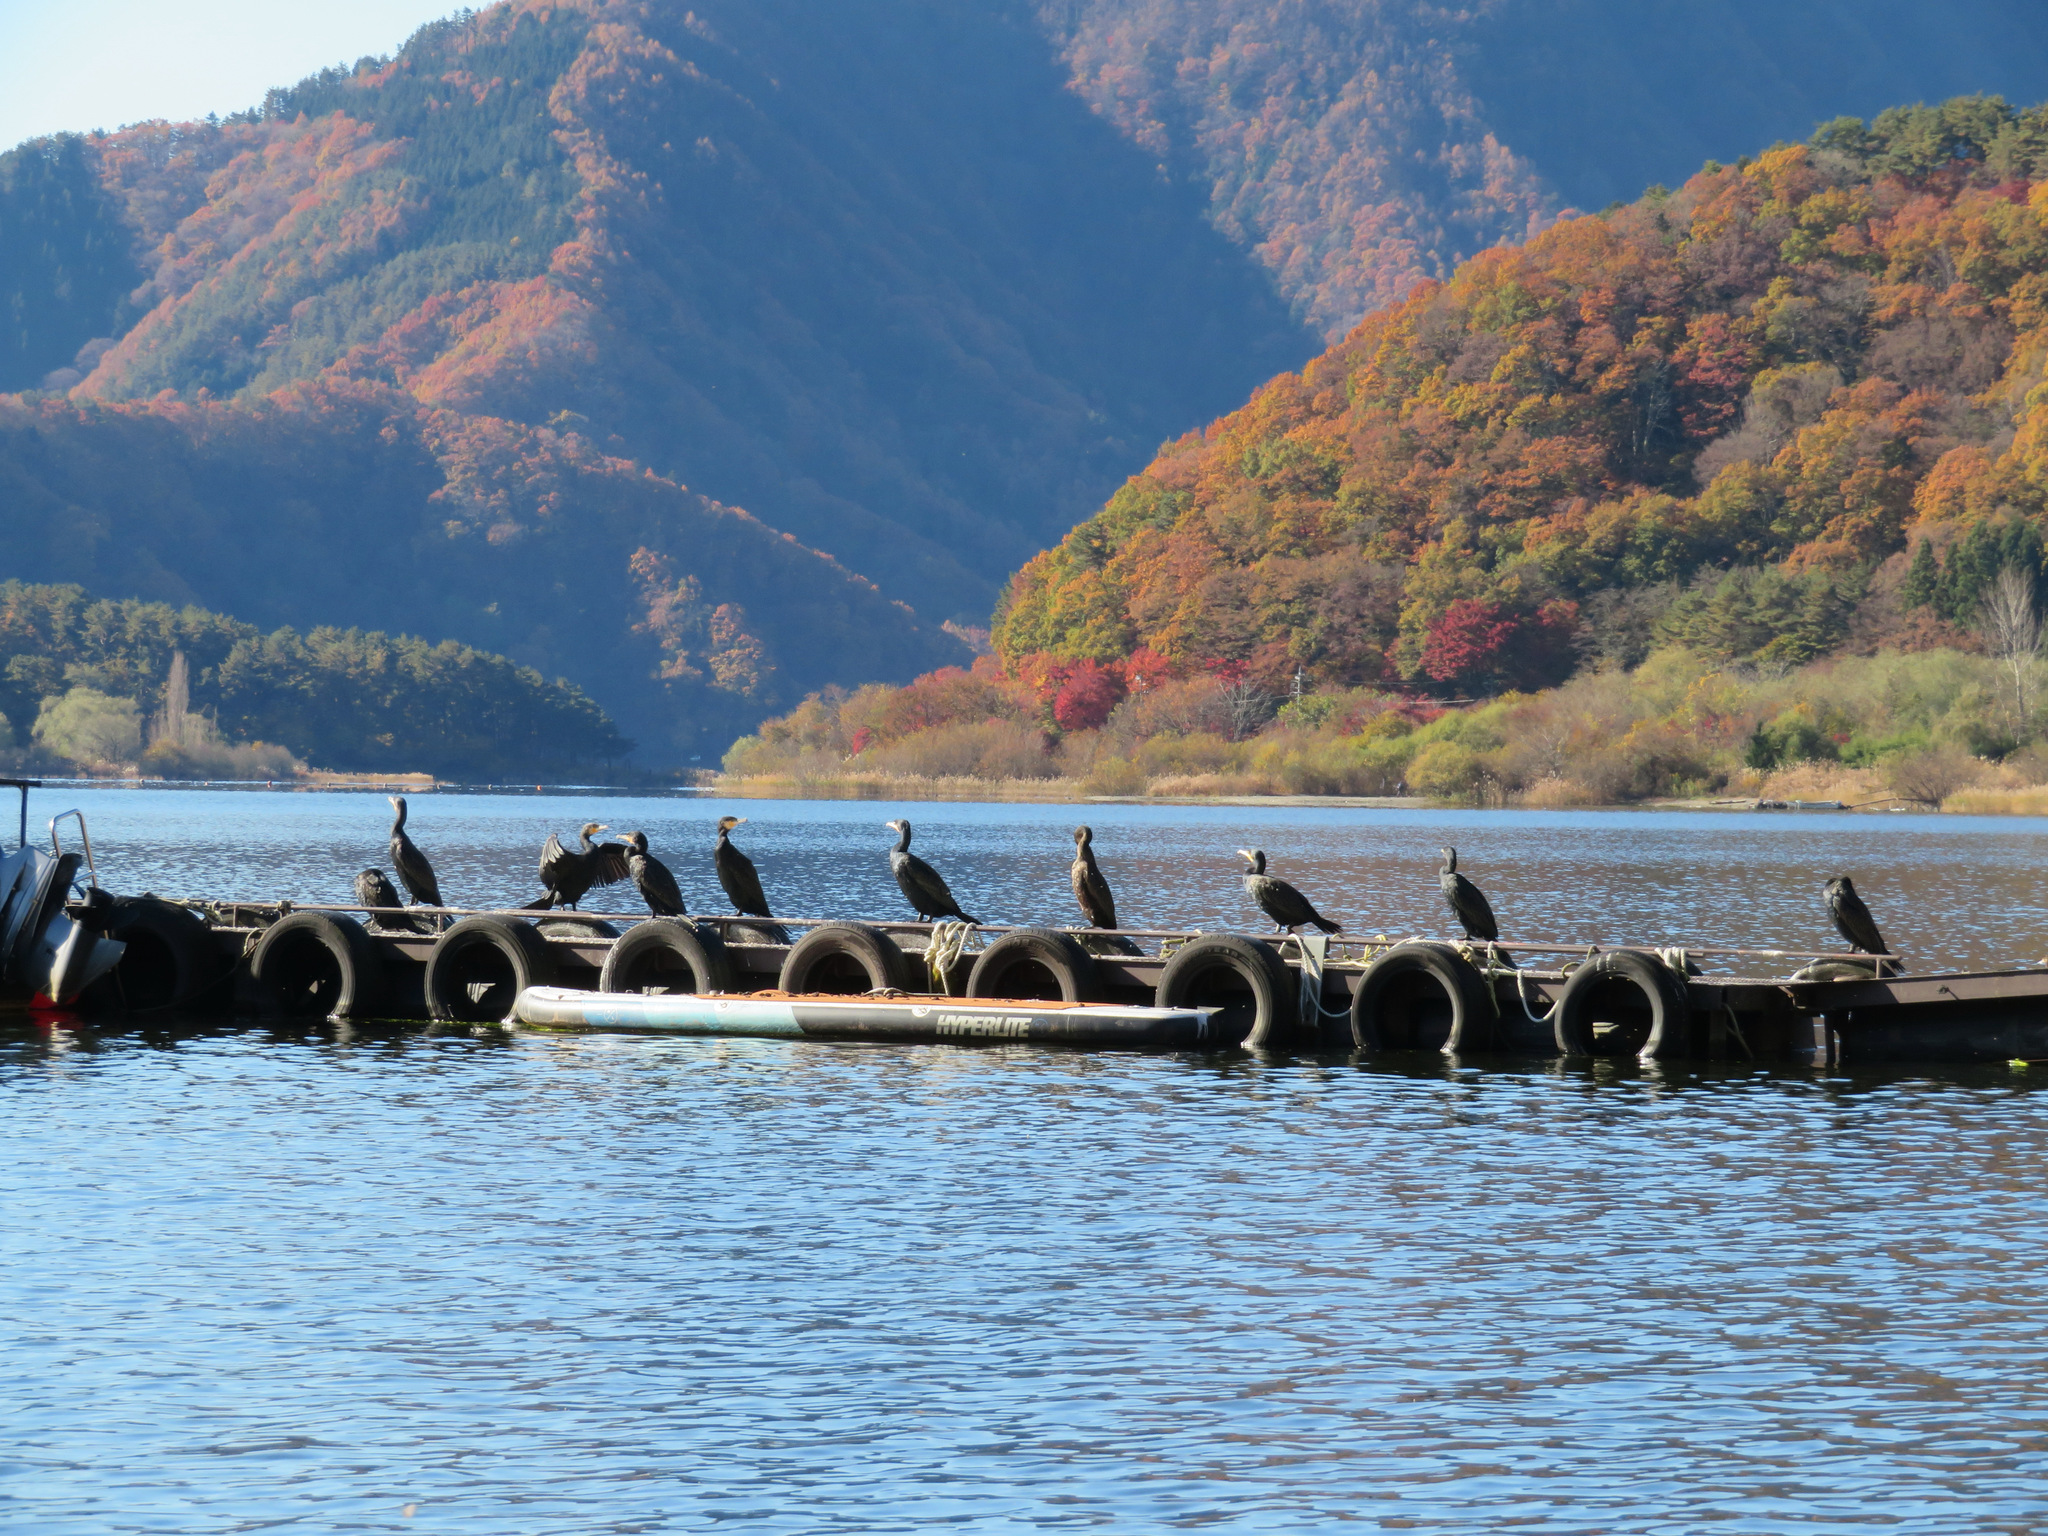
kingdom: Animalia
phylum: Chordata
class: Aves
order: Suliformes
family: Phalacrocoracidae
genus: Phalacrocorax
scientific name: Phalacrocorax carbo
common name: Great cormorant
